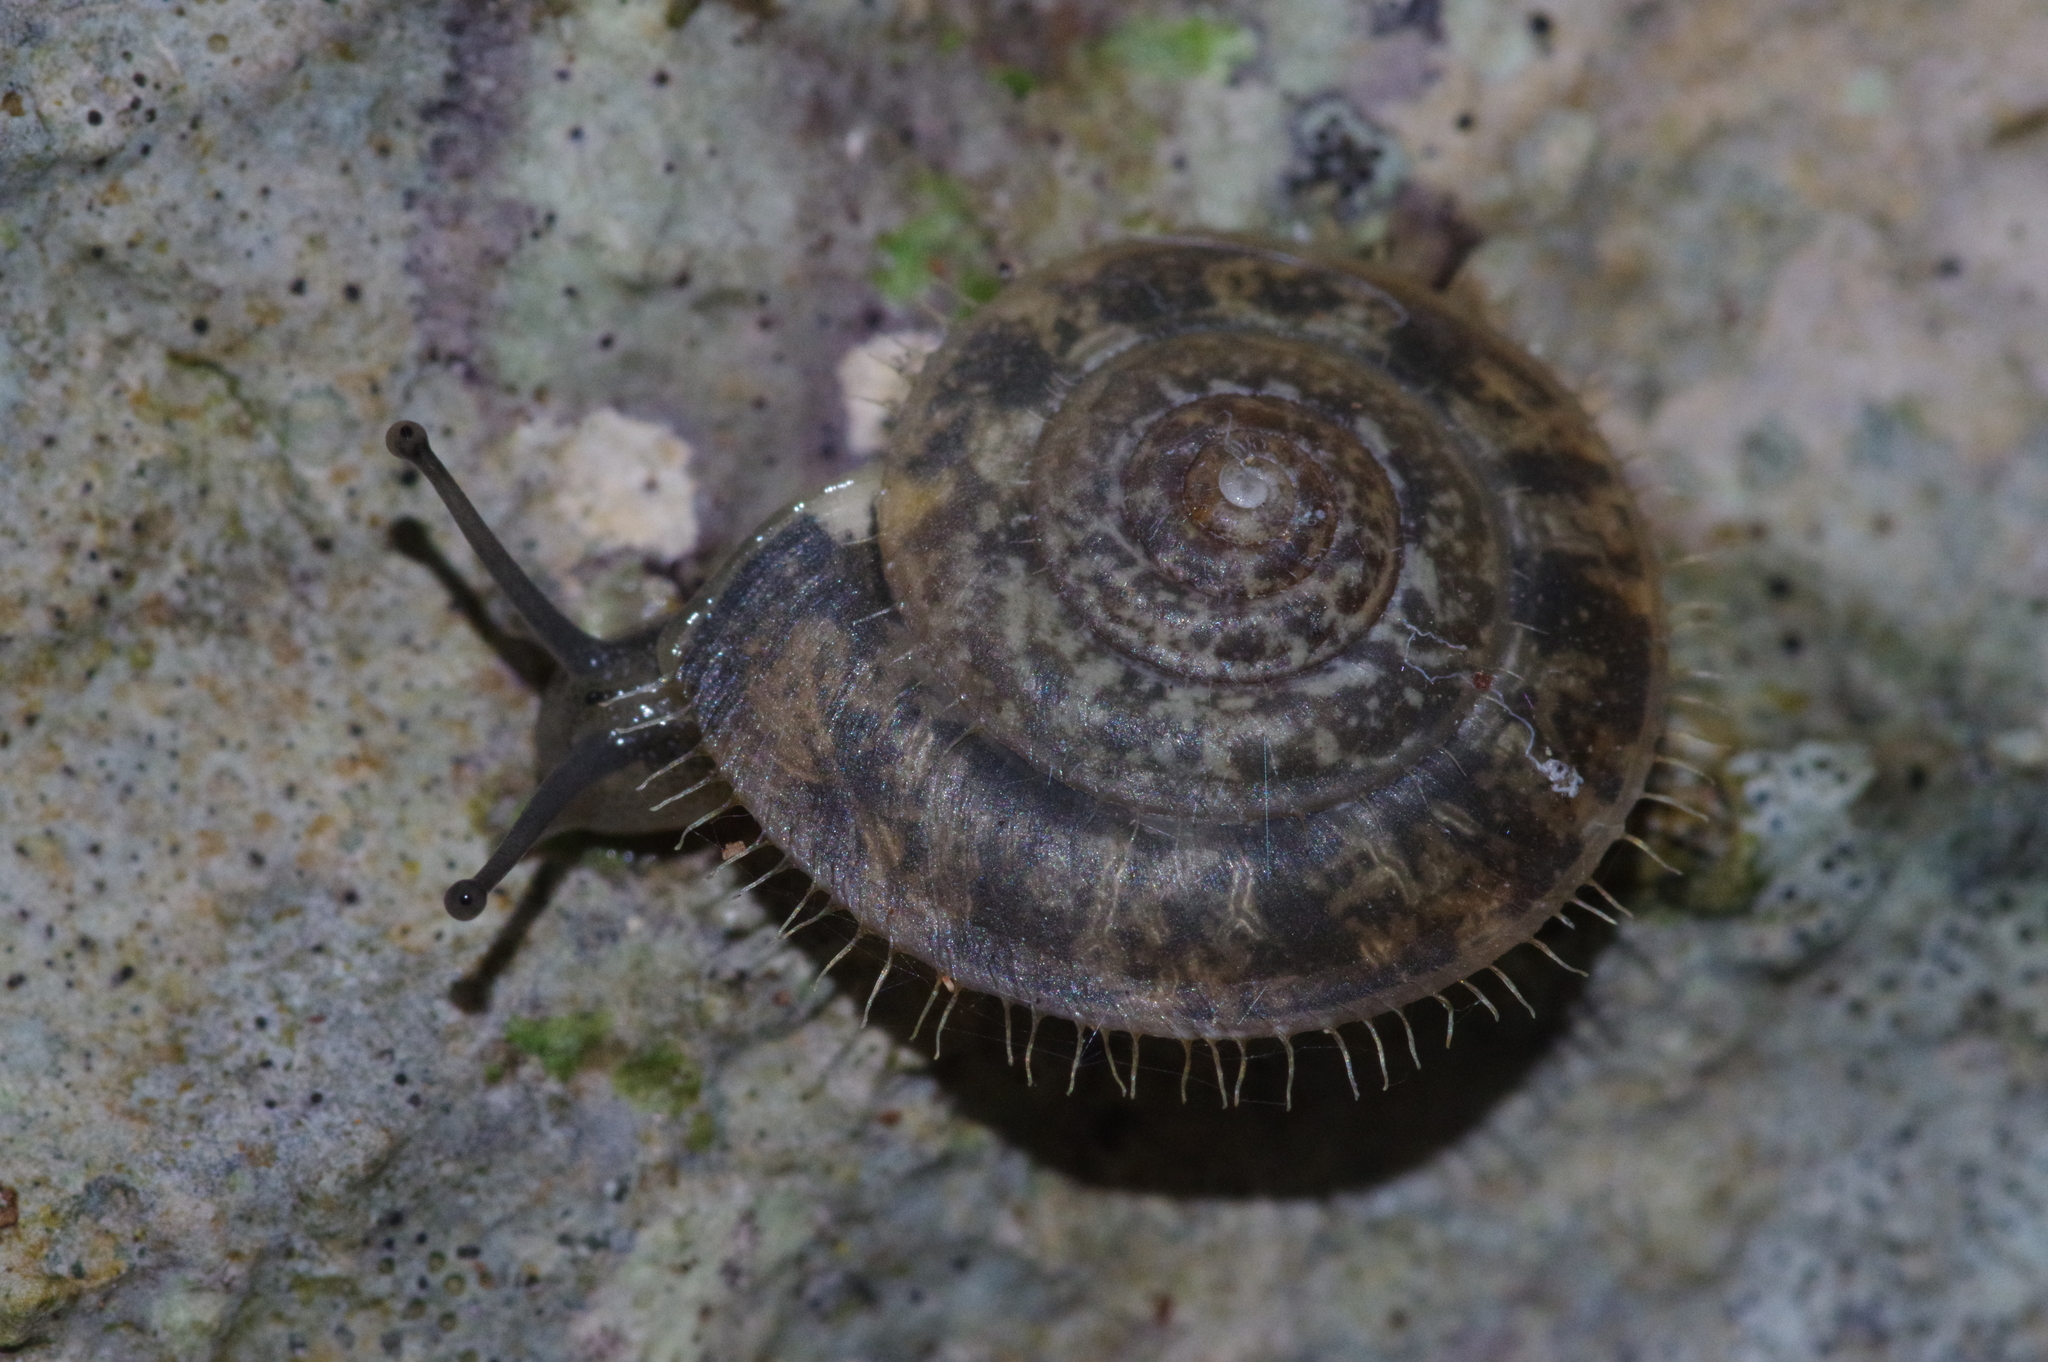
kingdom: Animalia
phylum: Mollusca
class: Gastropoda
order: Stylommatophora
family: Camaenidae
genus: Plectotropis
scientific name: Plectotropis elegantissima
